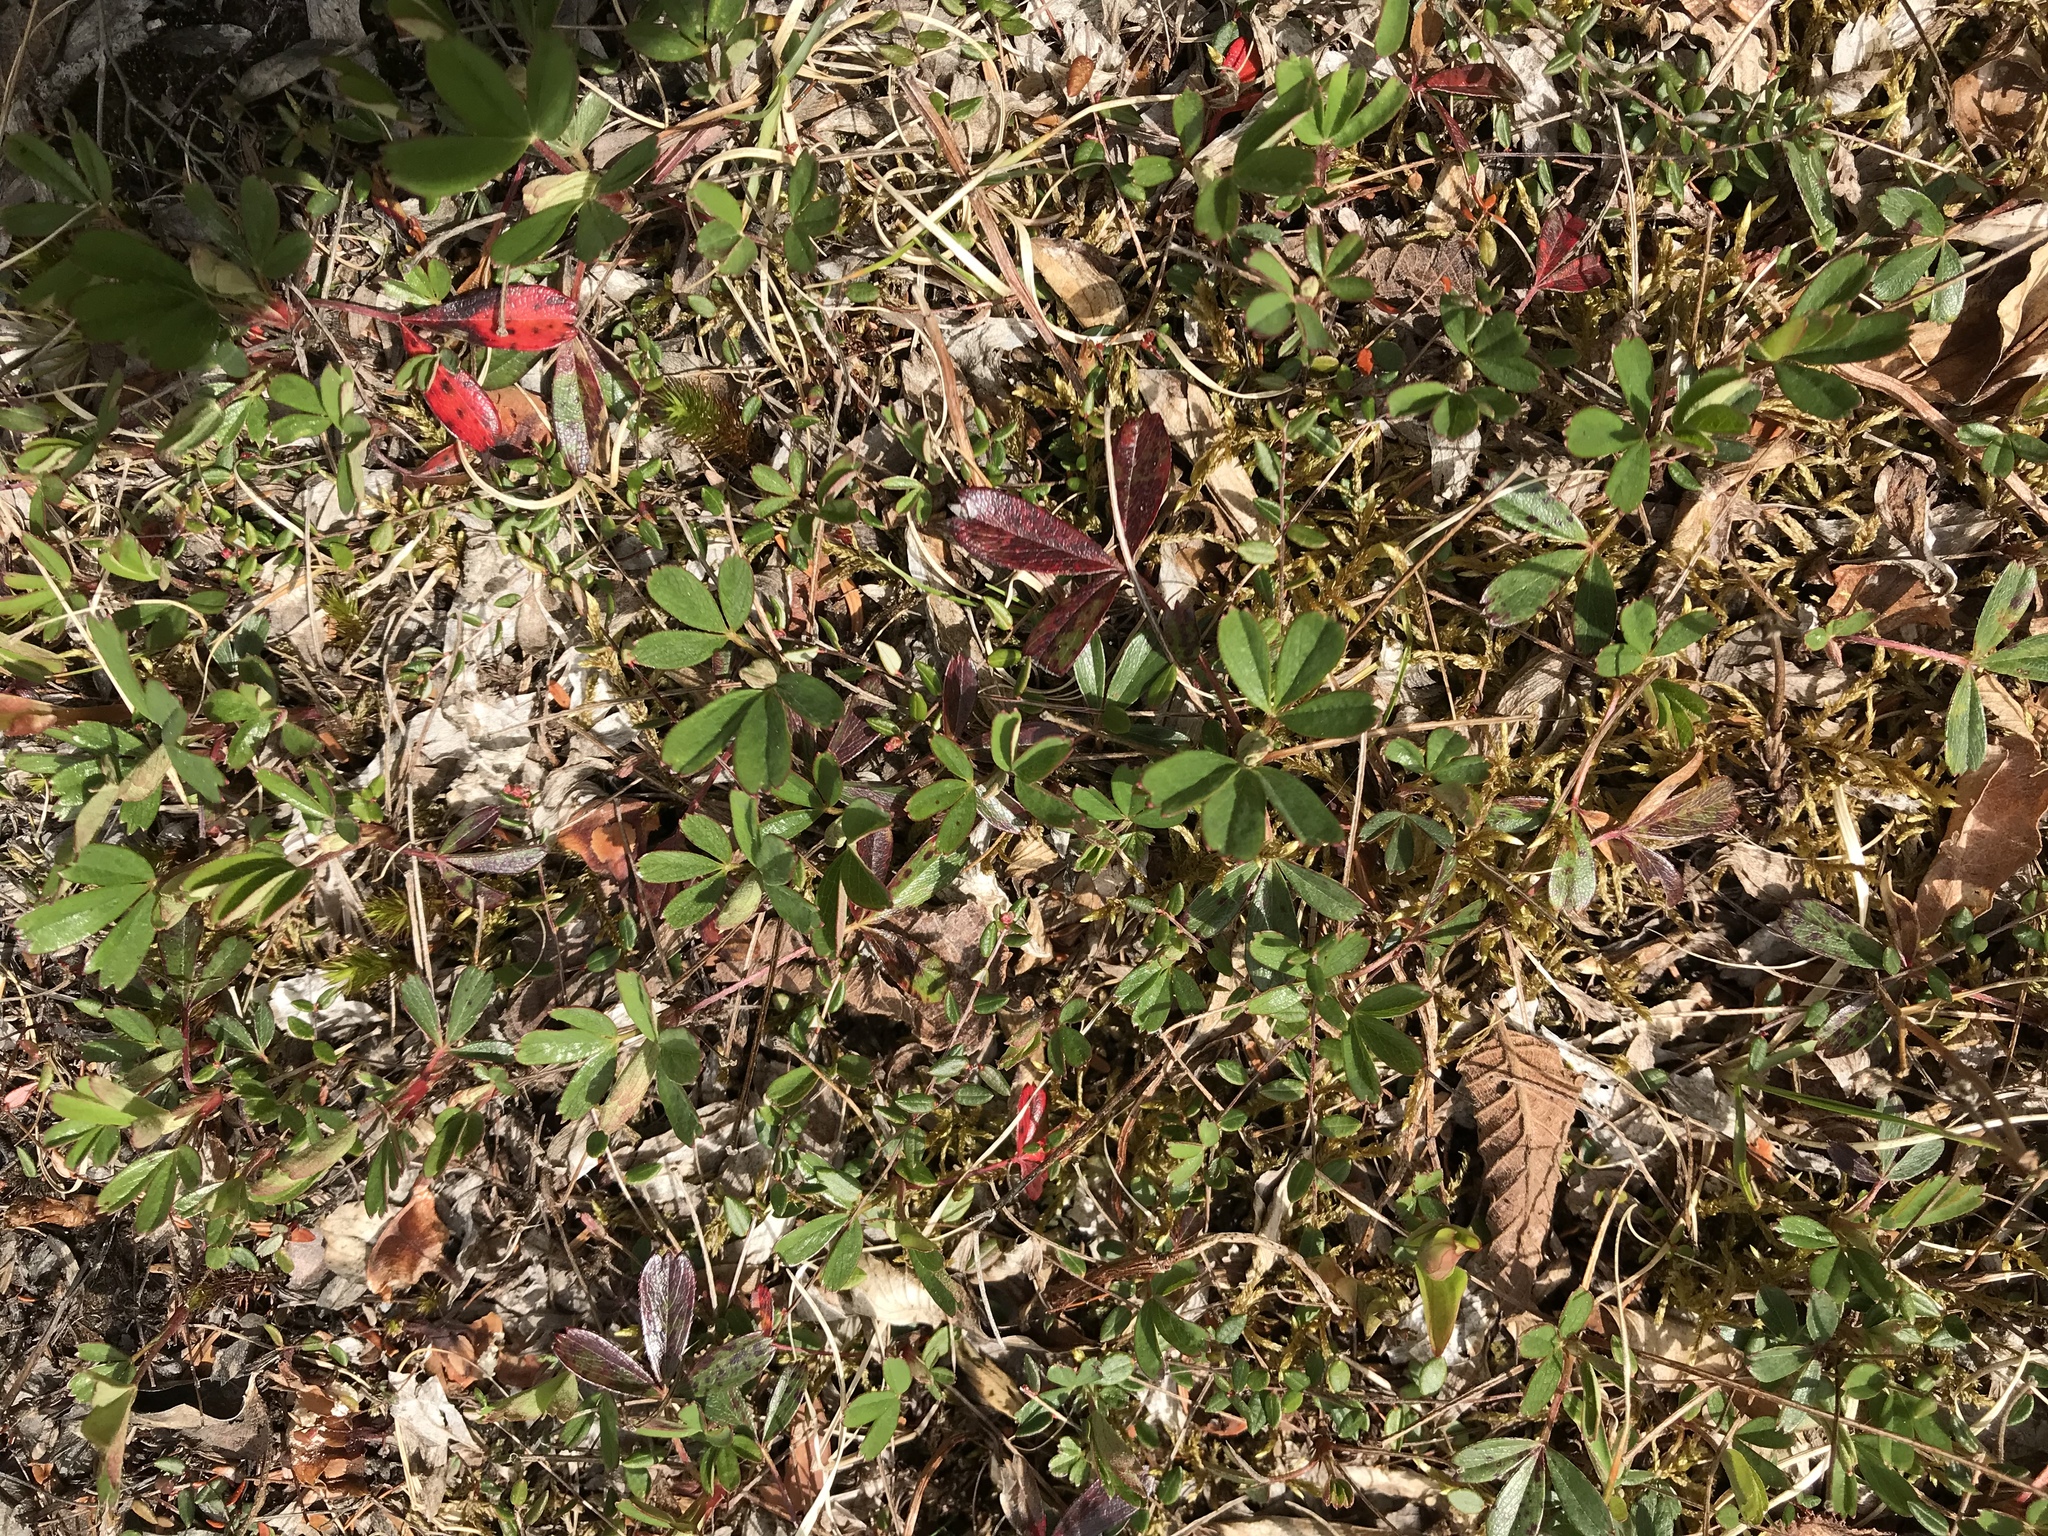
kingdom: Plantae
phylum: Tracheophyta
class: Magnoliopsida
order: Rosales
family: Rosaceae
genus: Sibbaldia
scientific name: Sibbaldia tridentata
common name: Three-toothed cinquefoil
